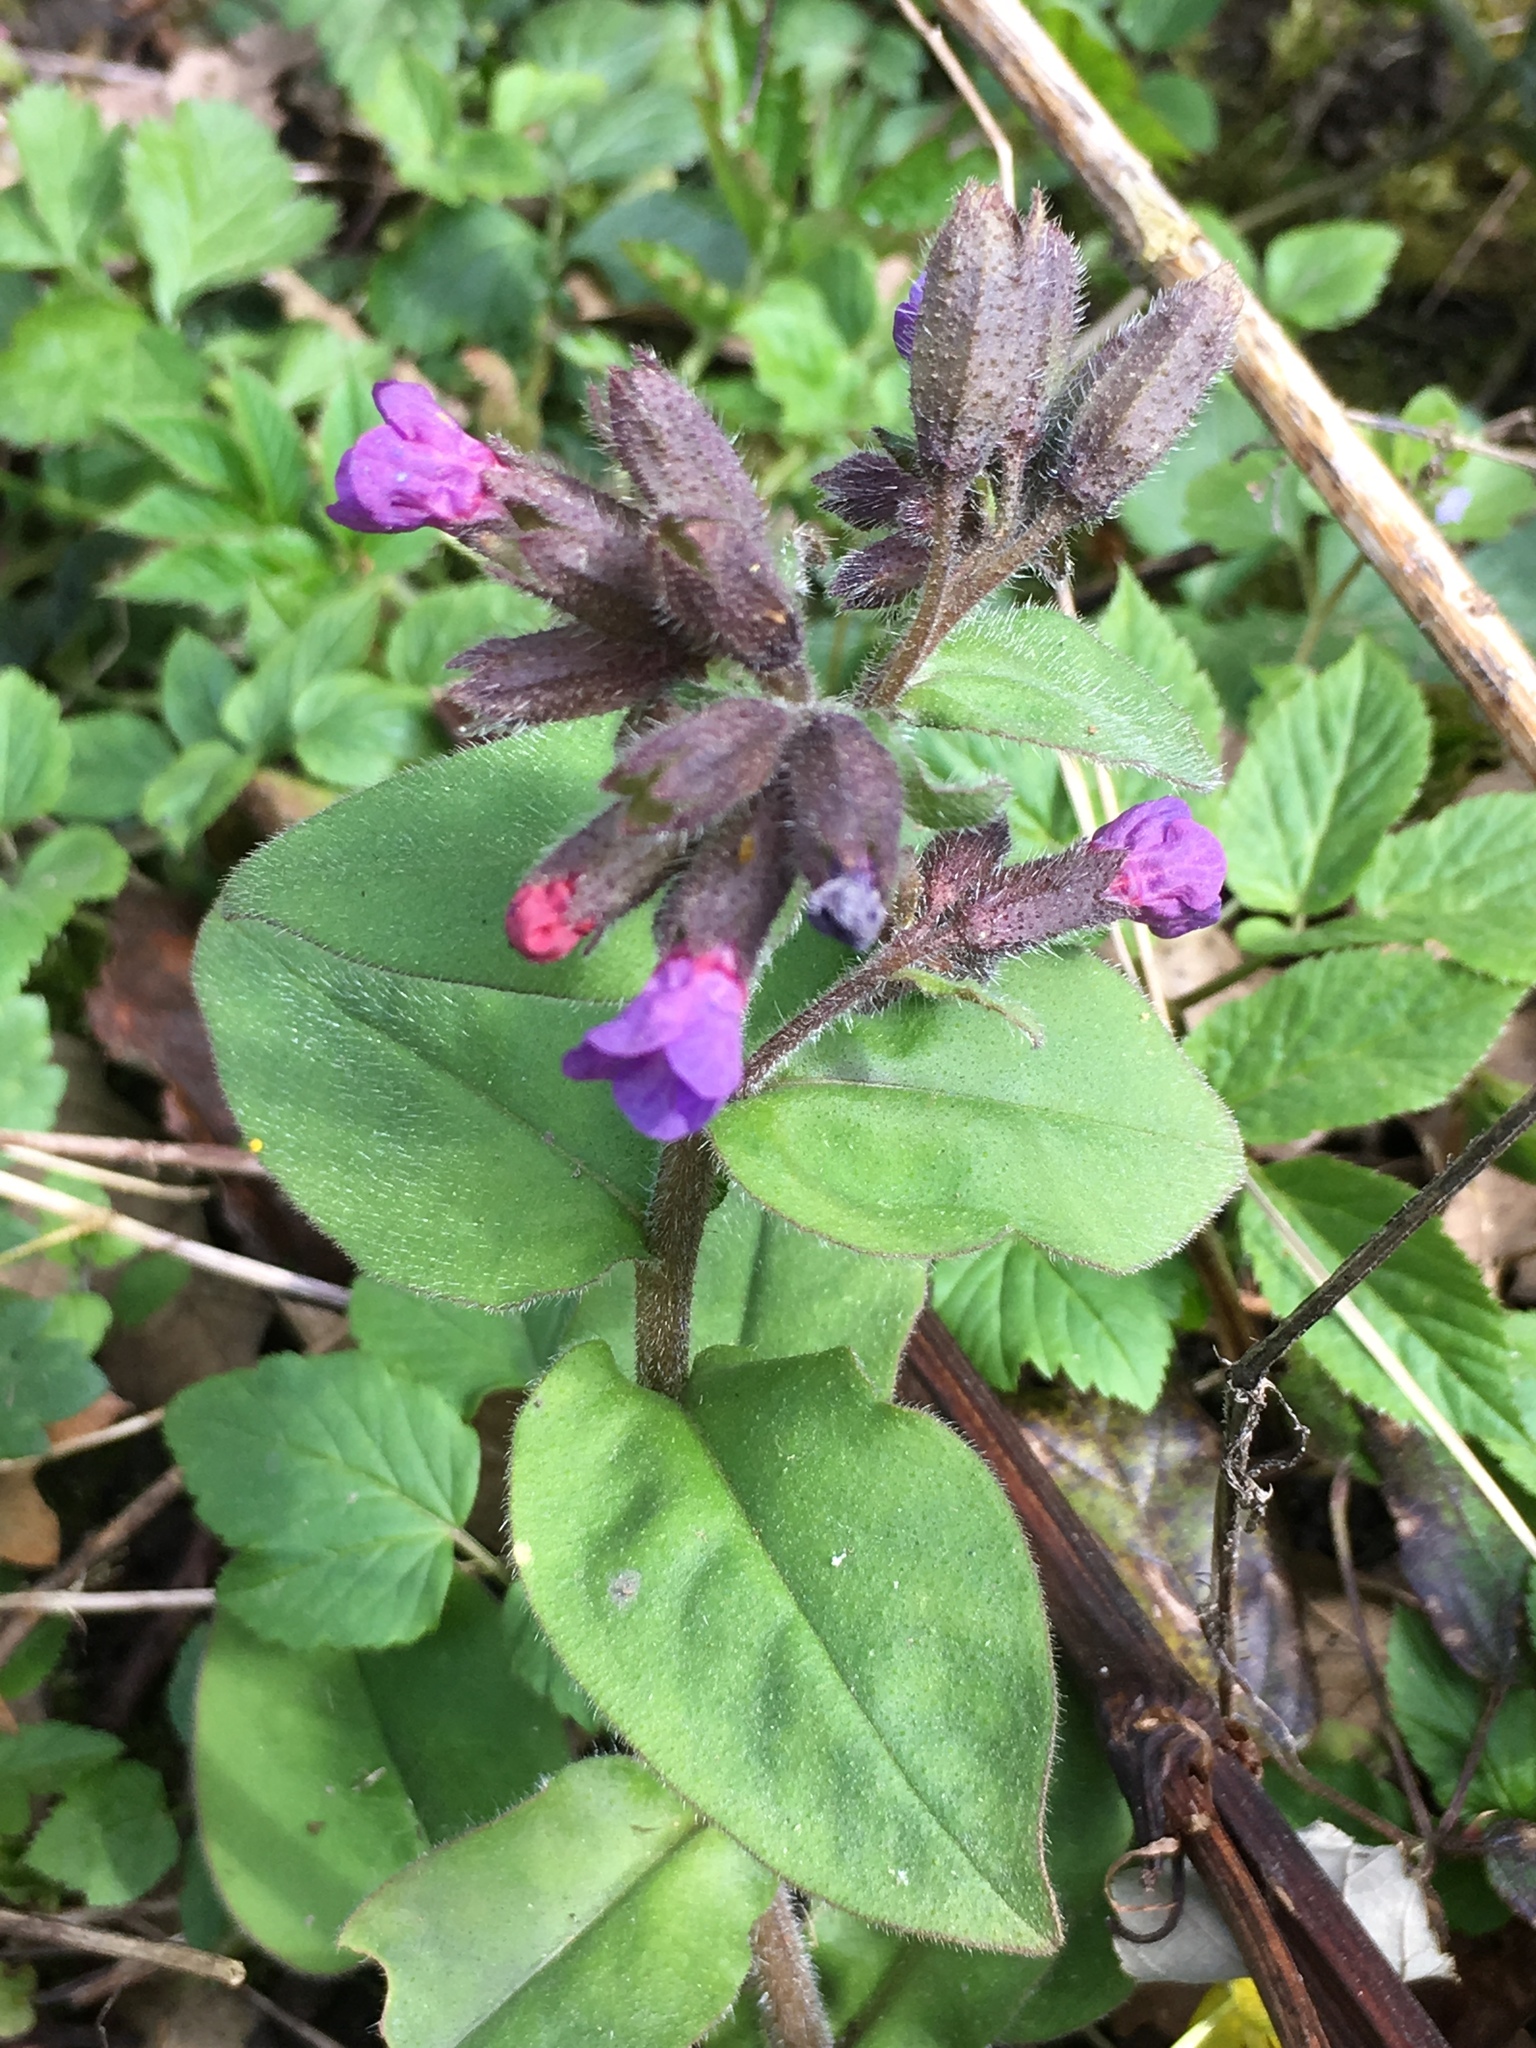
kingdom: Plantae
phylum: Tracheophyta
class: Magnoliopsida
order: Boraginales
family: Boraginaceae
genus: Pulmonaria
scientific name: Pulmonaria obscura
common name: Suffolk lungwort
